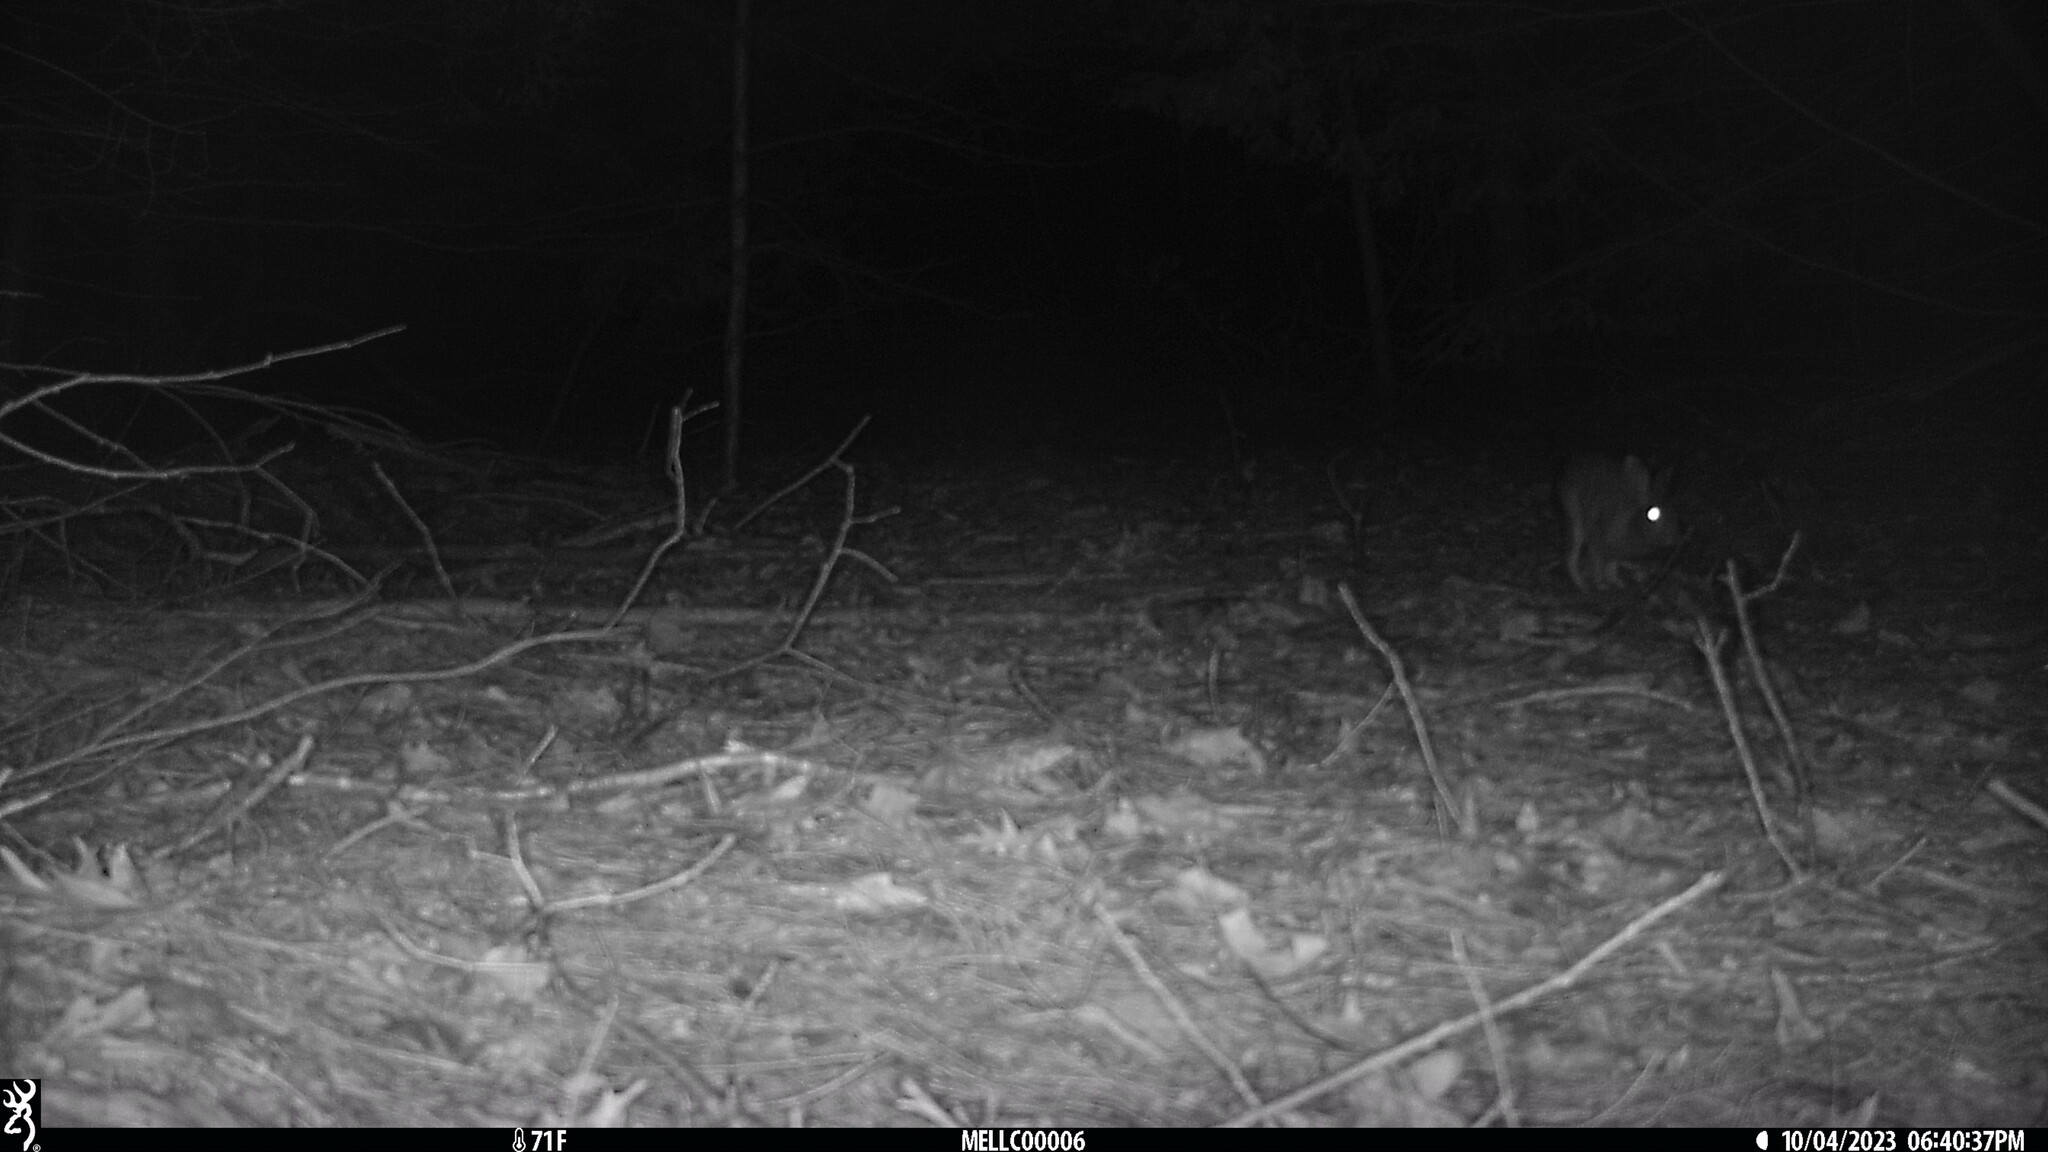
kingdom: Animalia
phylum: Chordata
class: Mammalia
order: Lagomorpha
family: Leporidae
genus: Sylvilagus
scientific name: Sylvilagus floridanus
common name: Eastern cottontail
